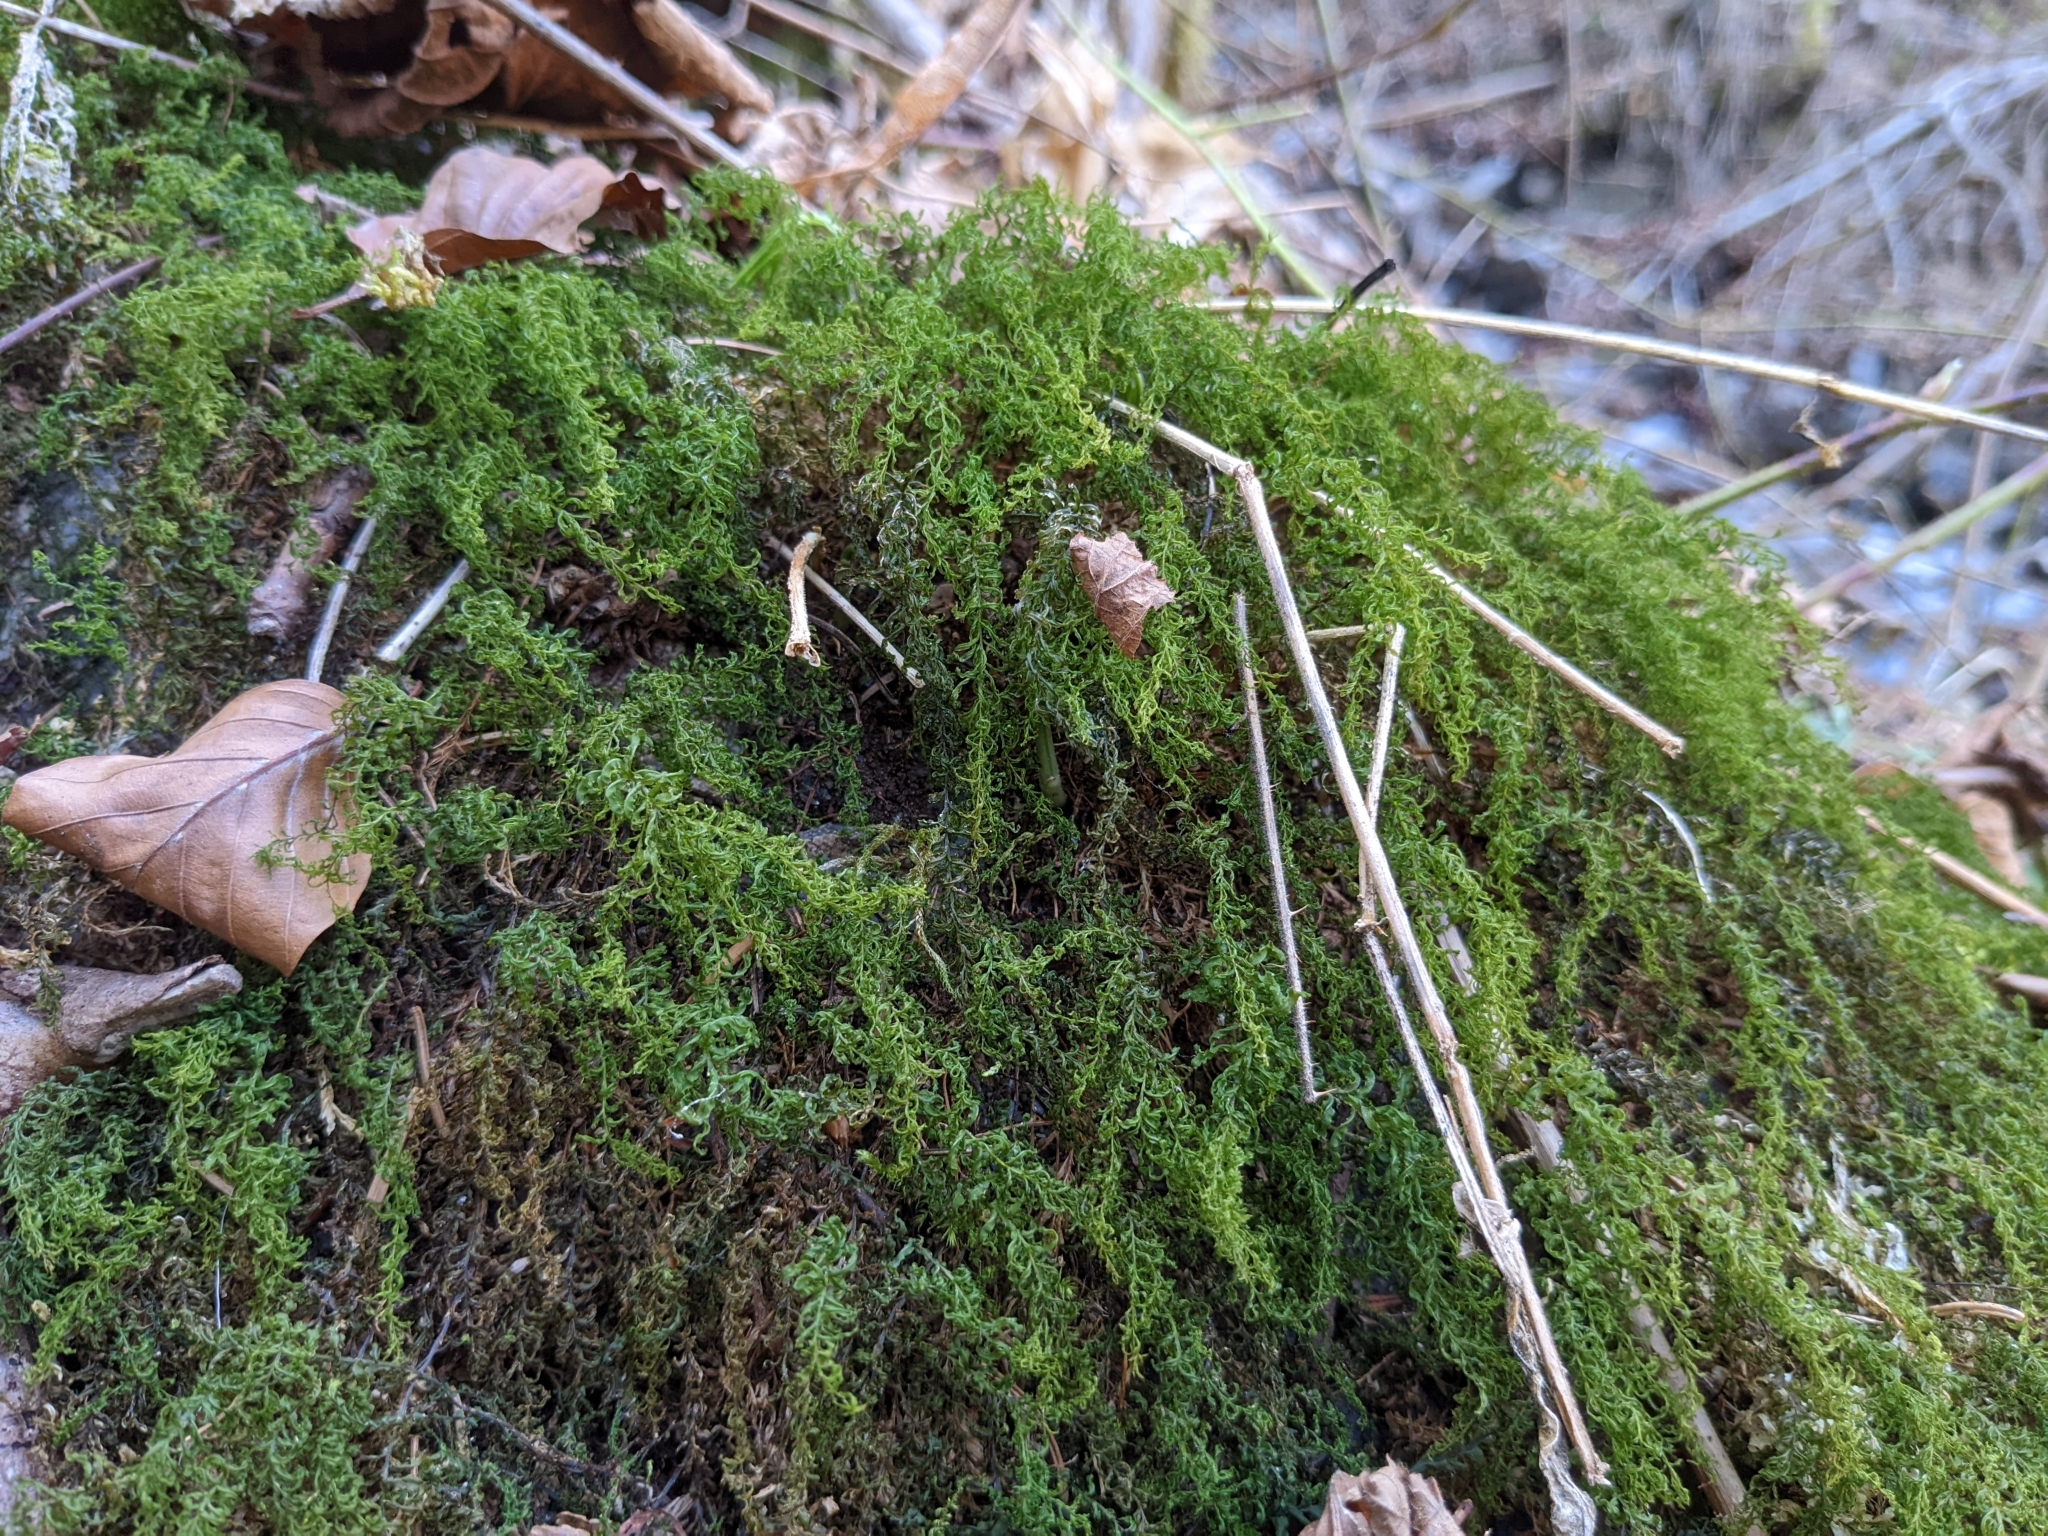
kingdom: Plantae
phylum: Bryophyta
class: Bryopsida
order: Bryales
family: Mniaceae
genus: Plagiomnium
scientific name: Plagiomnium undulatum
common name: Hart's-tongue thyme-moss
